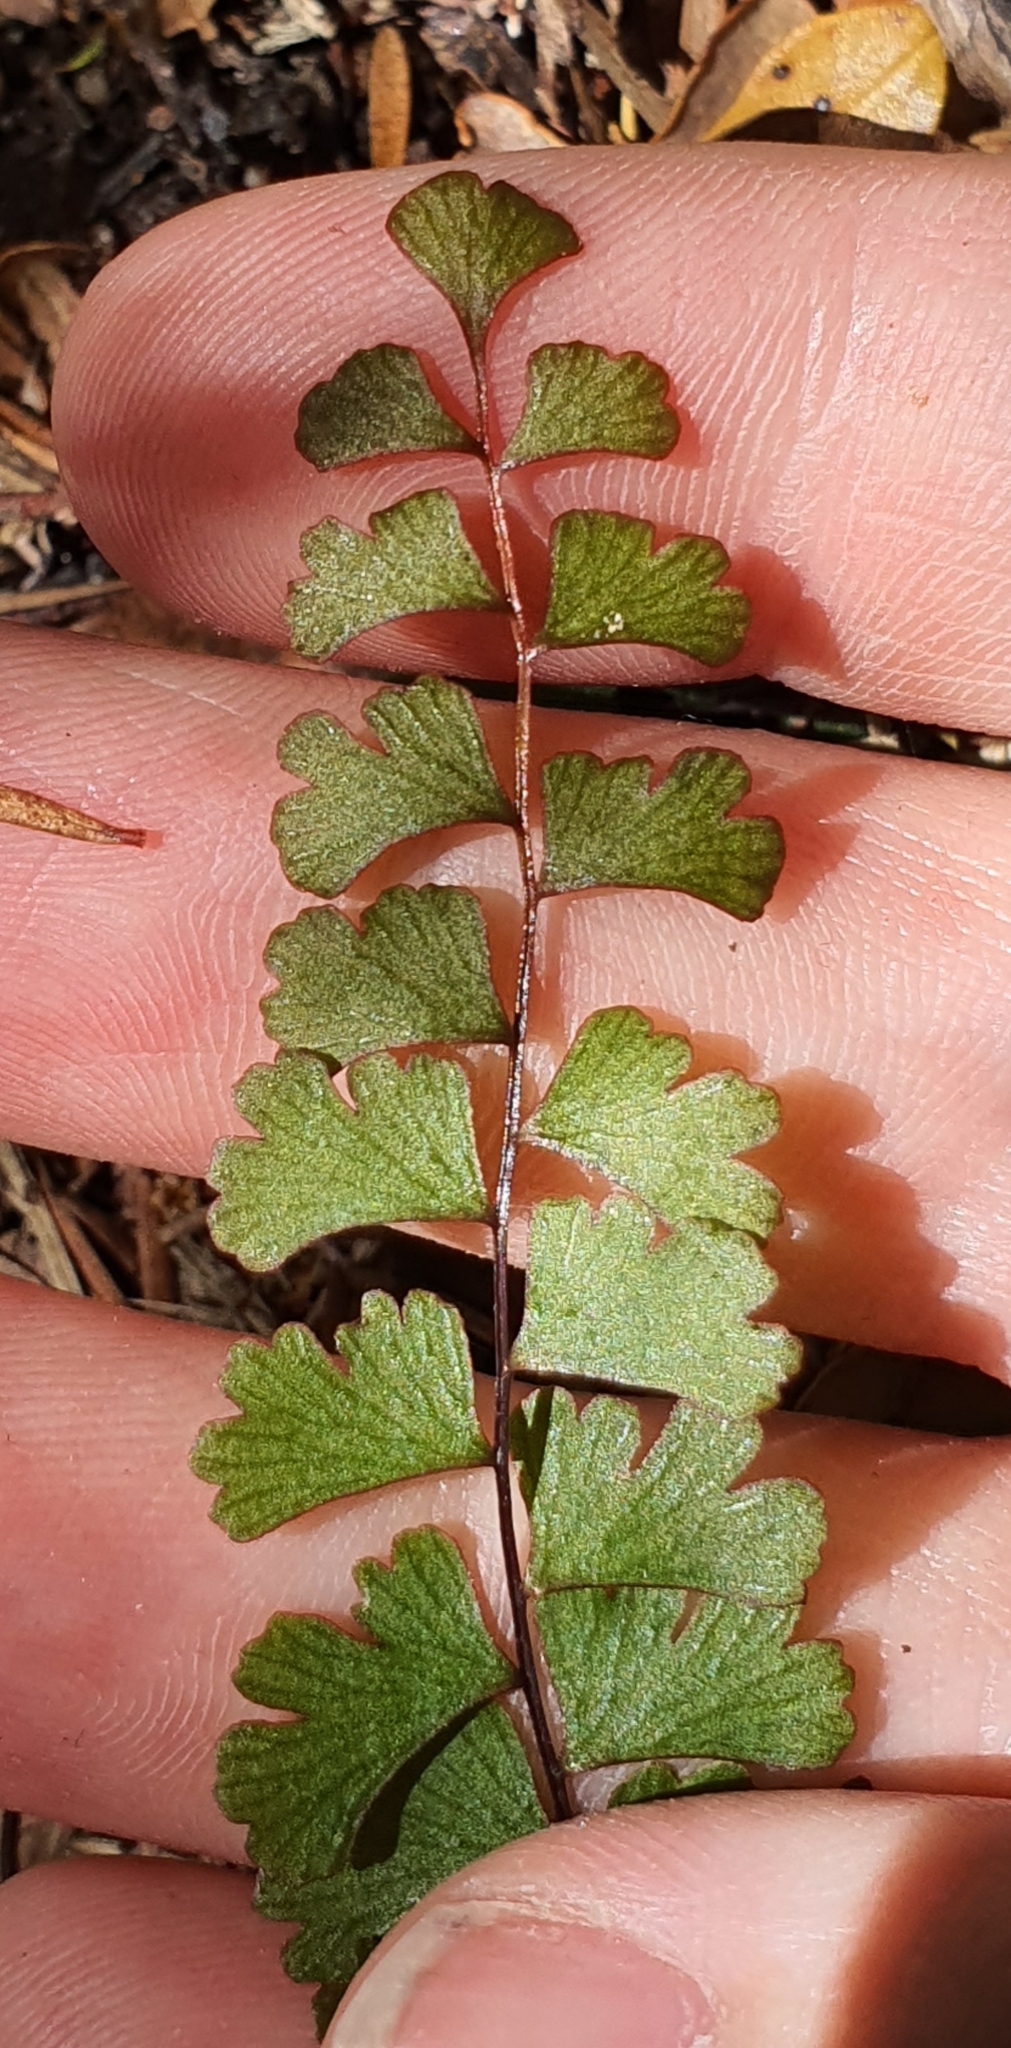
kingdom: Plantae
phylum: Tracheophyta
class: Polypodiopsida
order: Polypodiales
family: Lindsaeaceae
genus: Lindsaea
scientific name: Lindsaea linearis
